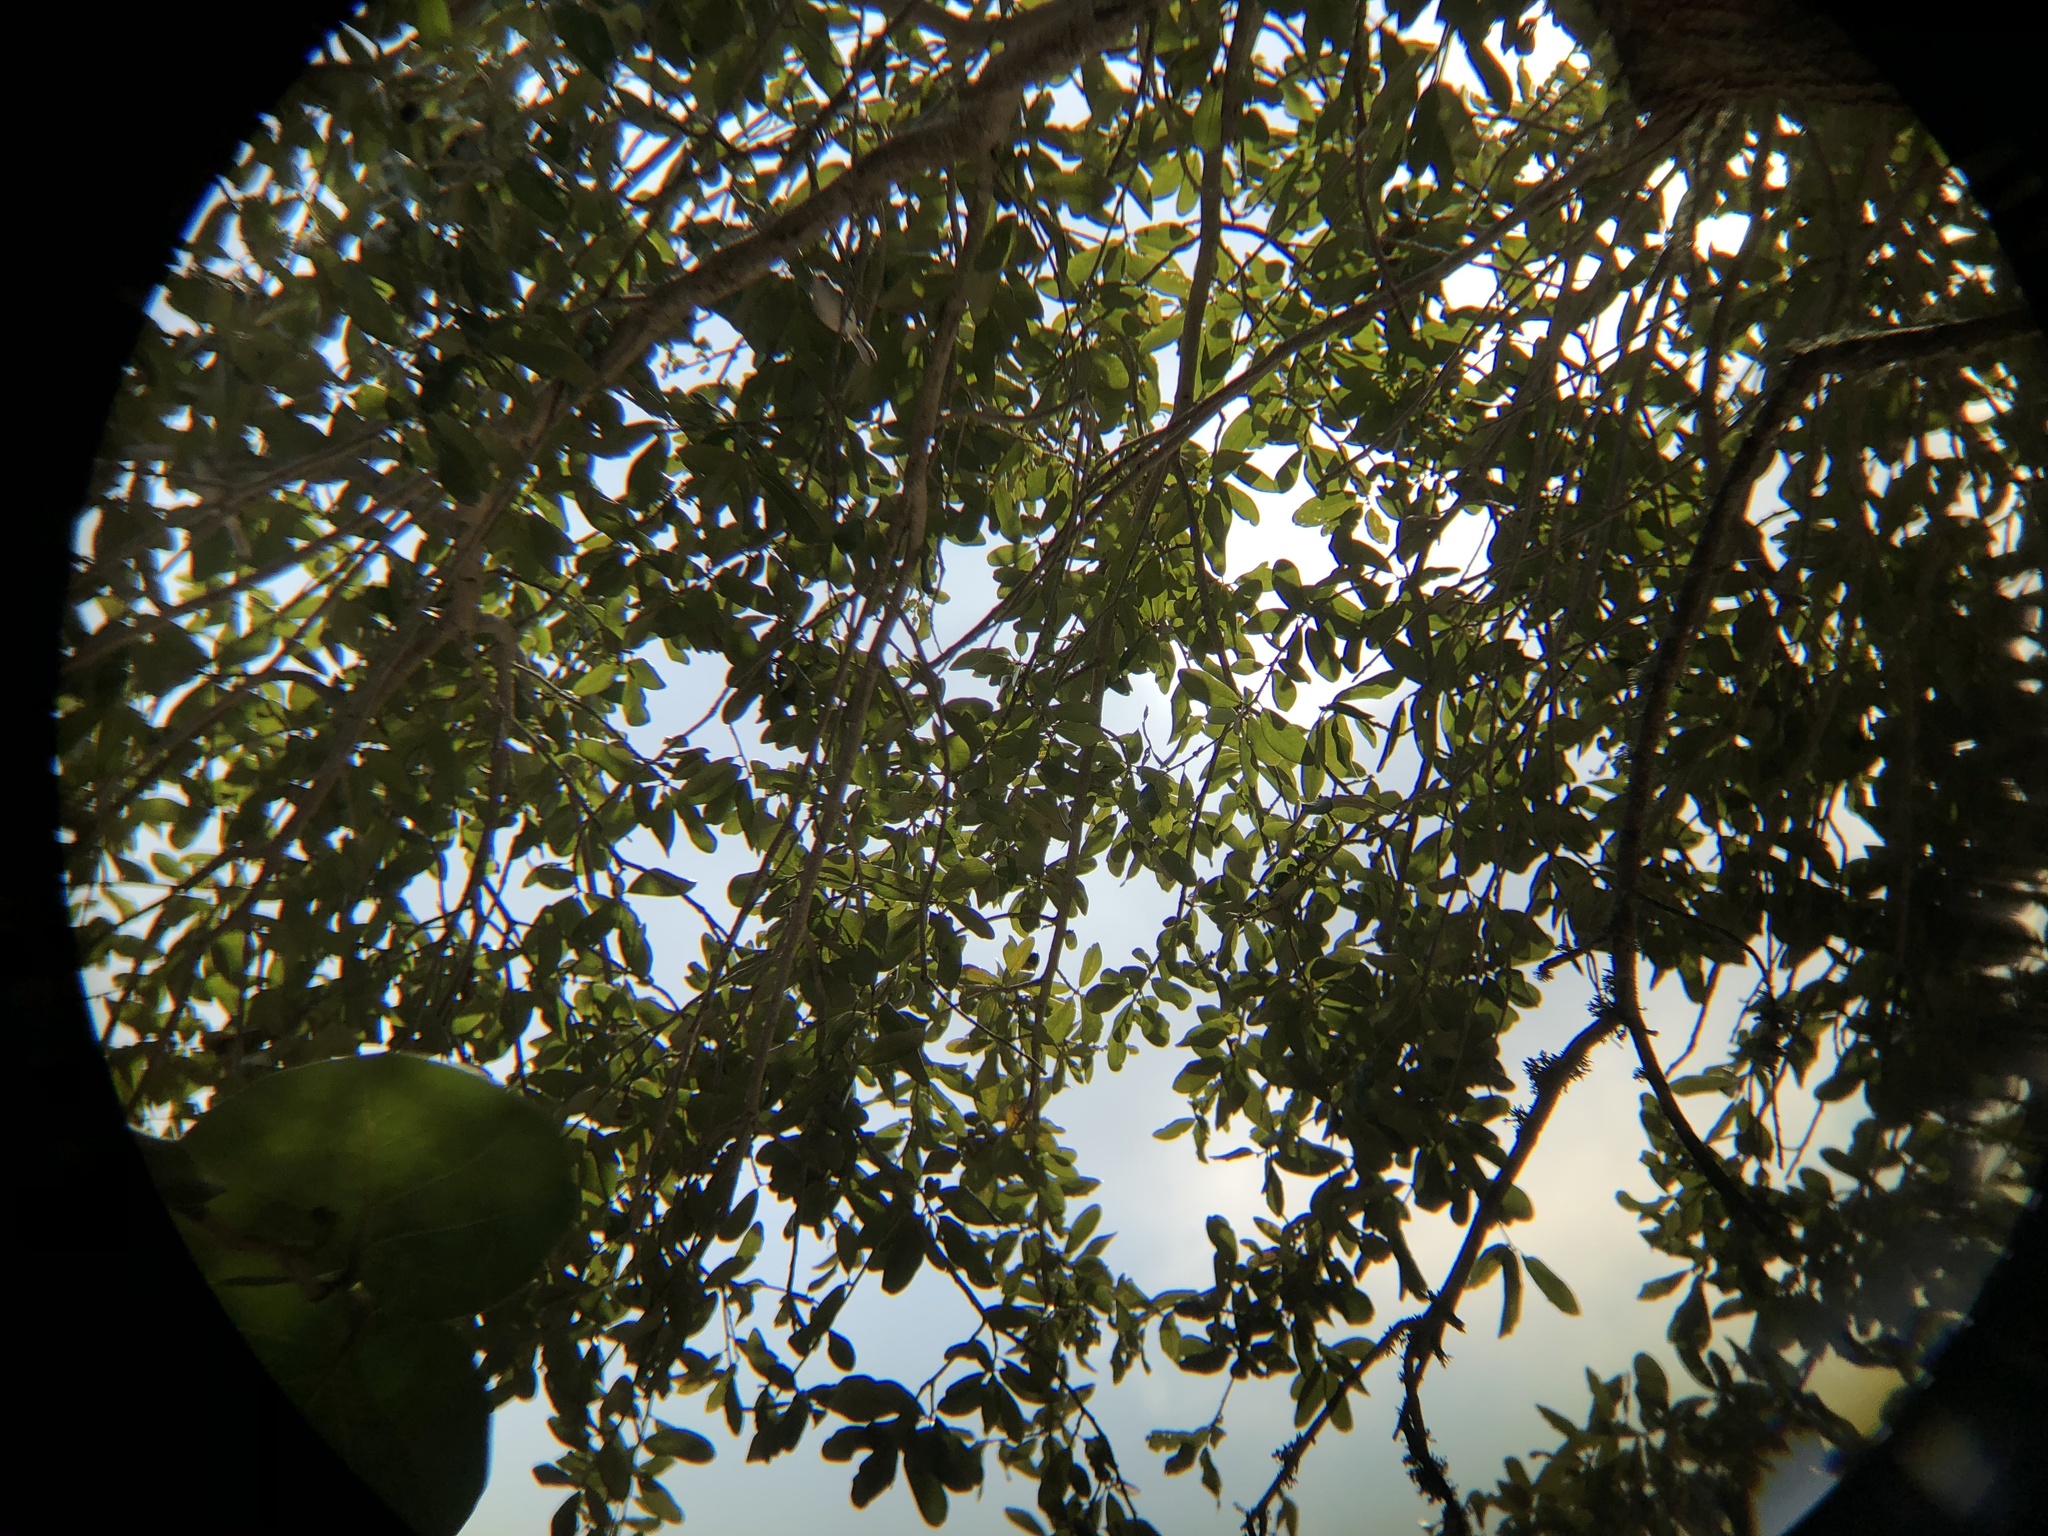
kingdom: Animalia
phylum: Chordata
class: Aves
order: Passeriformes
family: Polioptilidae
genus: Polioptila
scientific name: Polioptila caerulea
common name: Blue-gray gnatcatcher
